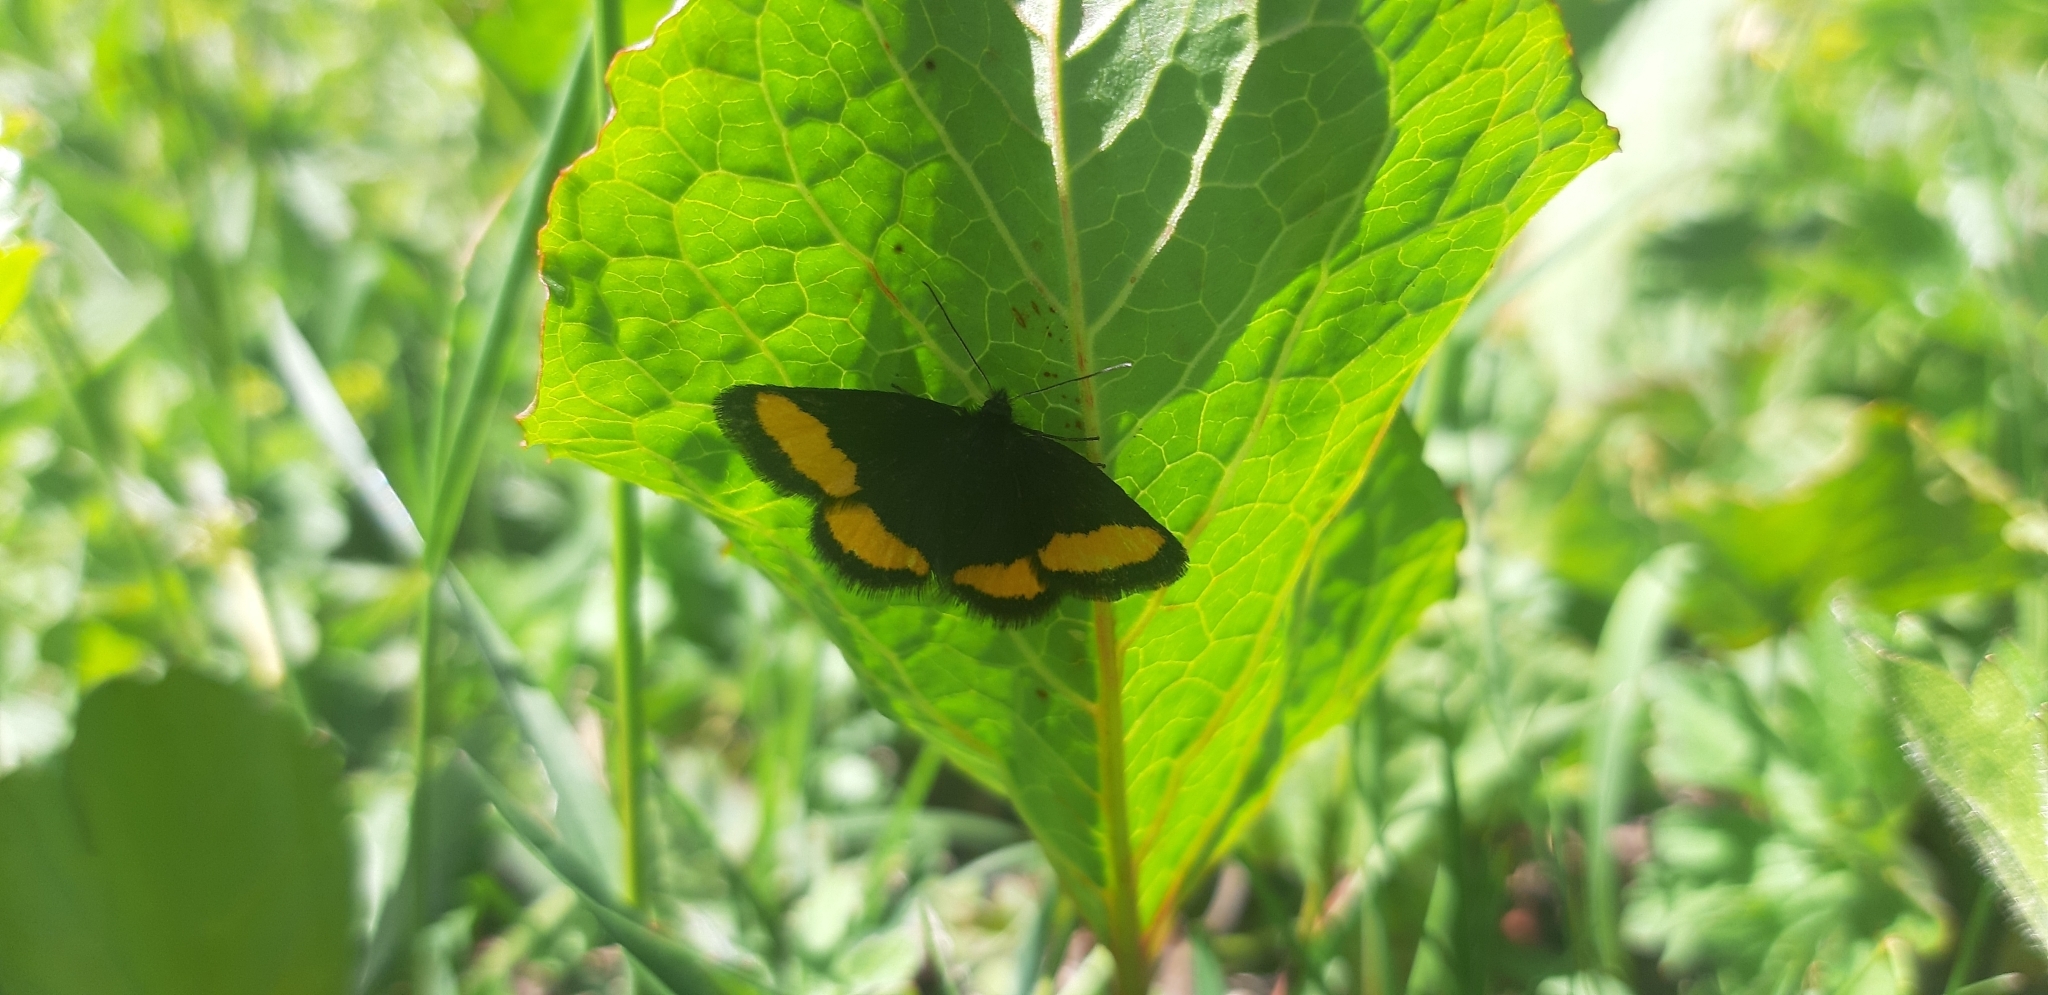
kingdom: Animalia
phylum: Arthropoda
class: Insecta
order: Lepidoptera
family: Geometridae
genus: Psodos
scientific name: Psodos quadrifaria
